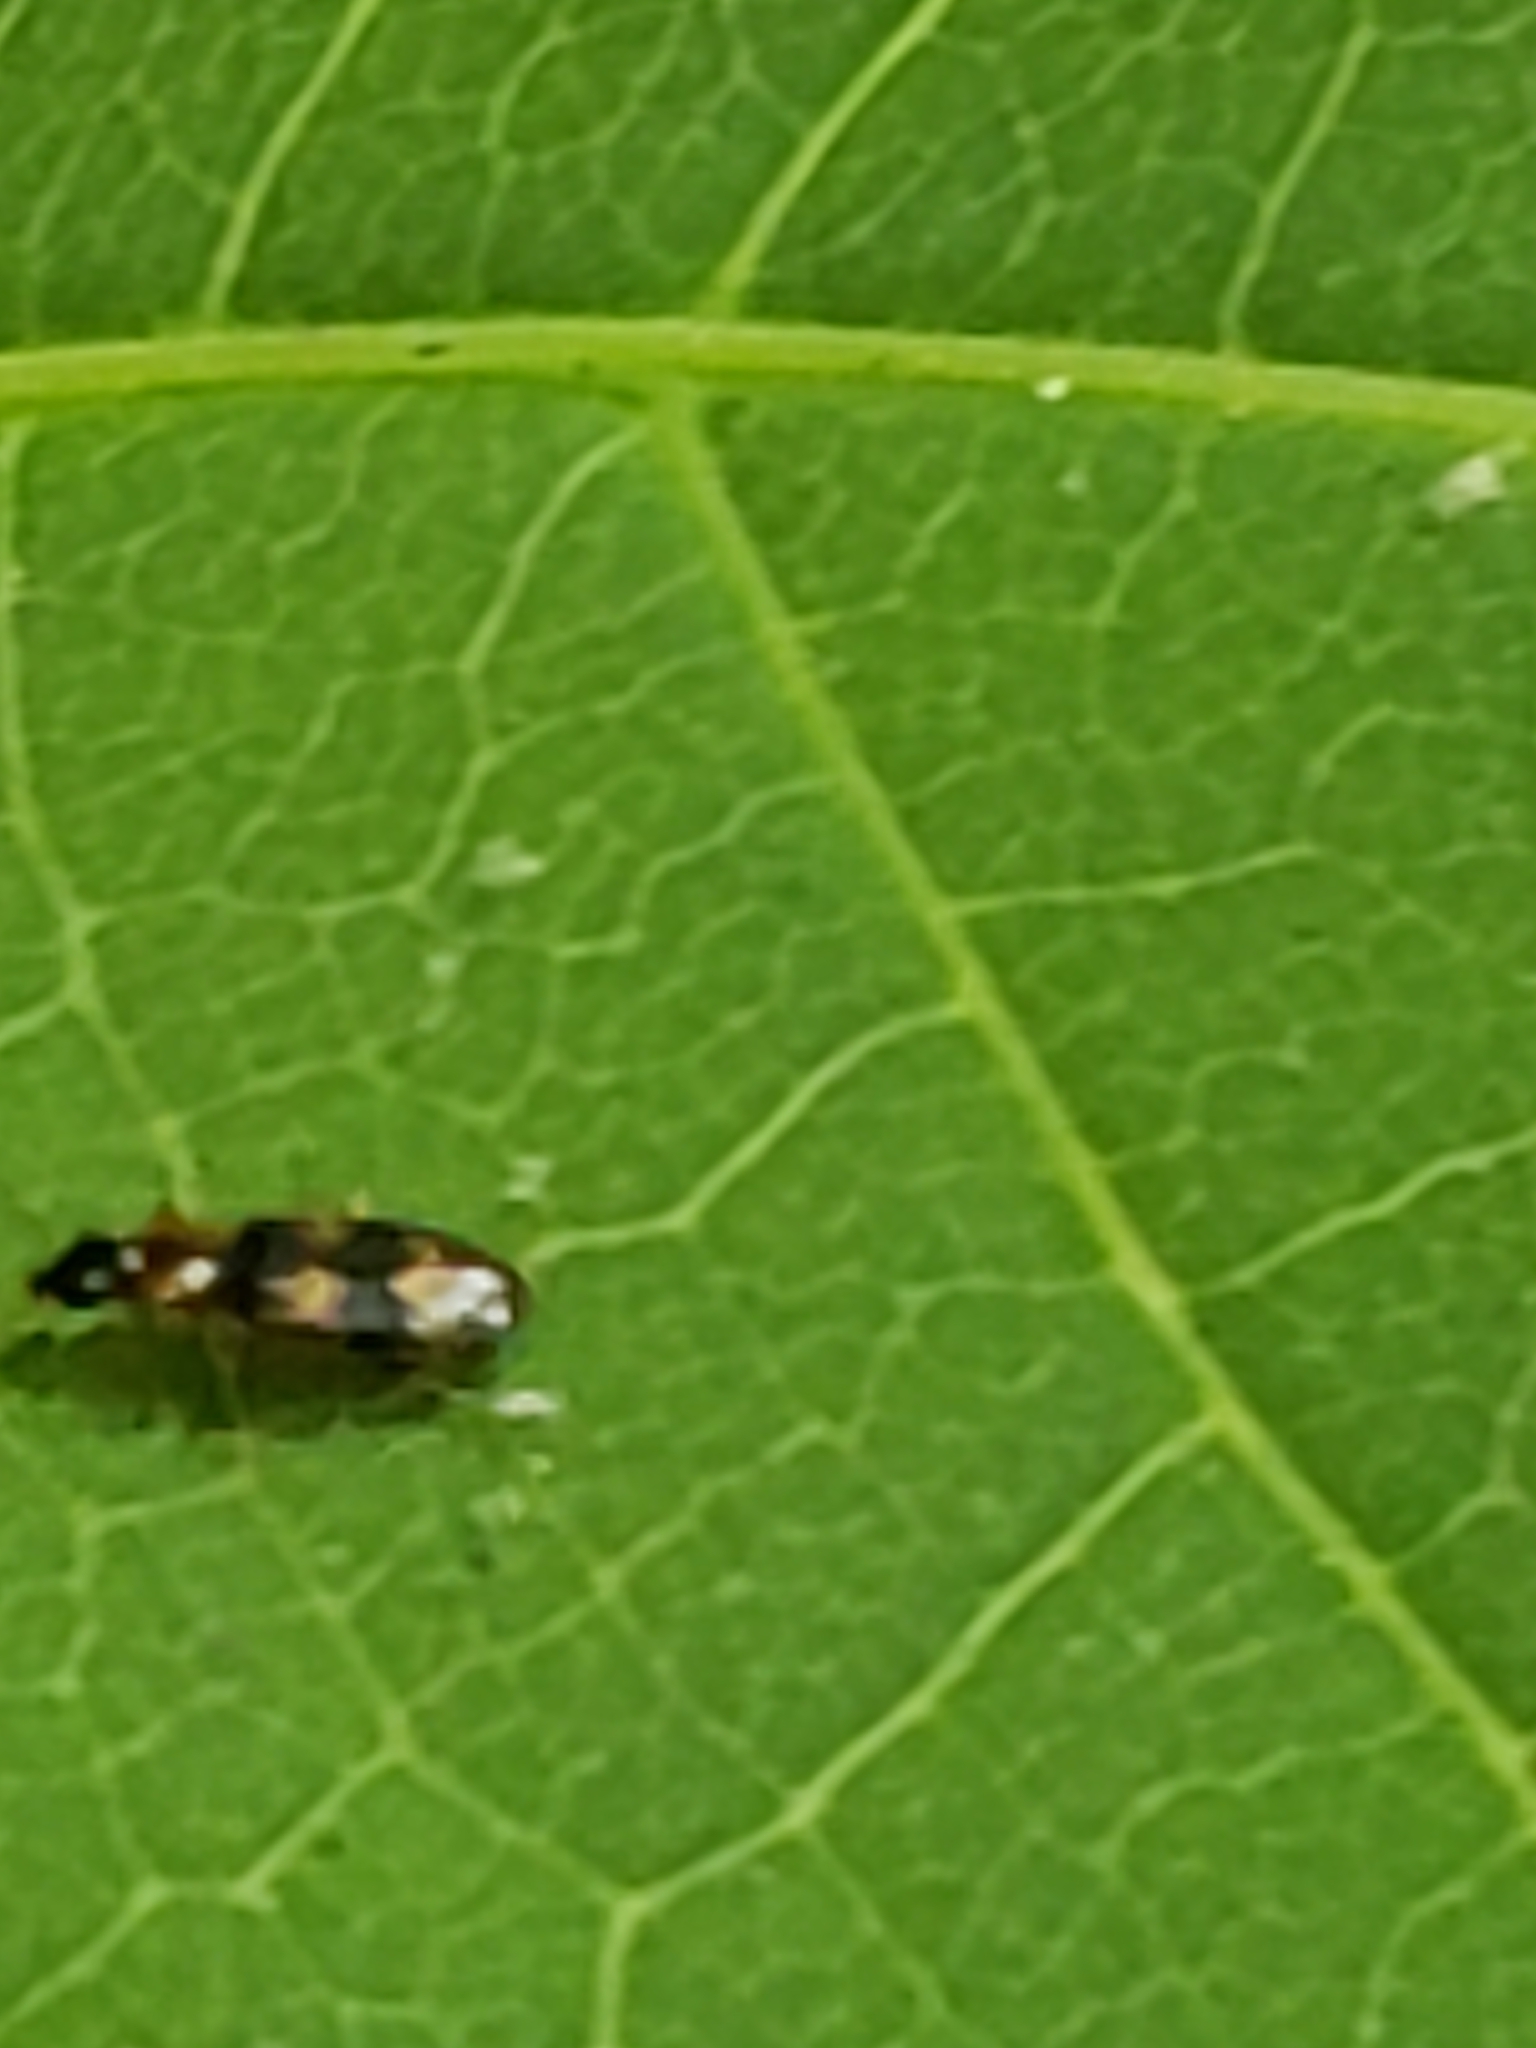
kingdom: Animalia
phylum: Arthropoda
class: Insecta
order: Coleoptera
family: Carabidae
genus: Phloeoxena
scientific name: Phloeoxena signata
